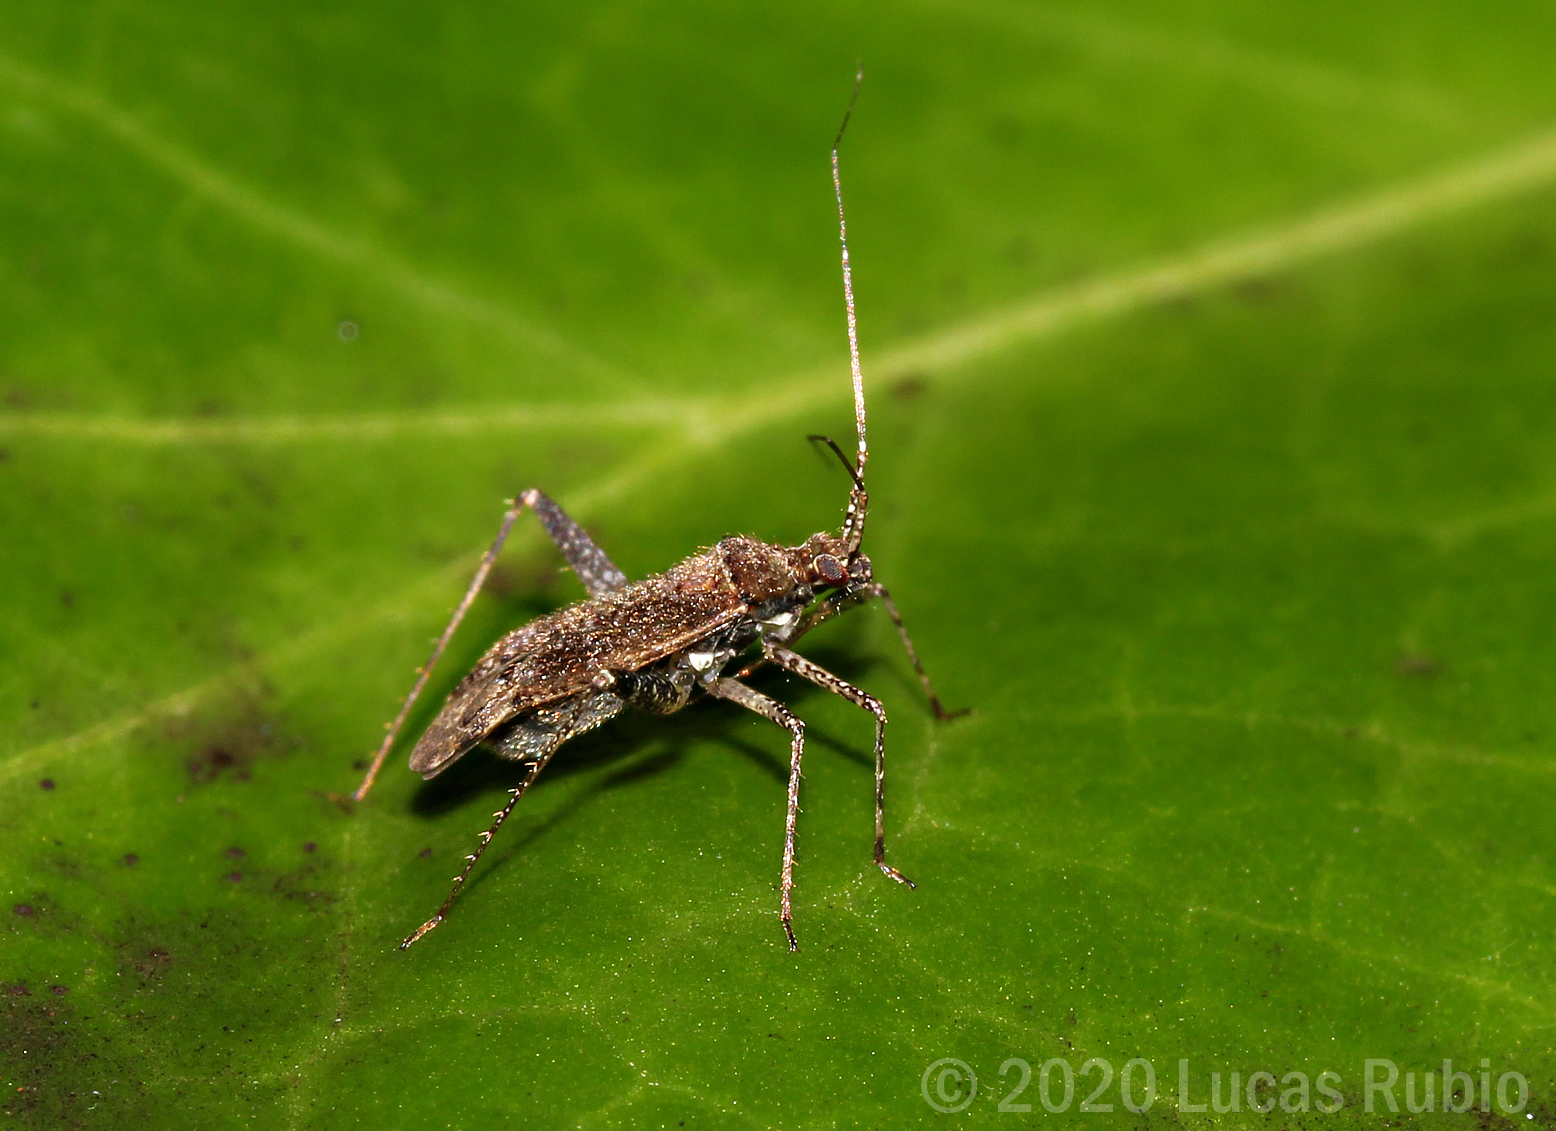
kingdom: Animalia
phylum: Arthropoda
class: Insecta
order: Hemiptera
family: Miridae
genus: Phytocoris
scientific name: Phytocoris bonaerensis
